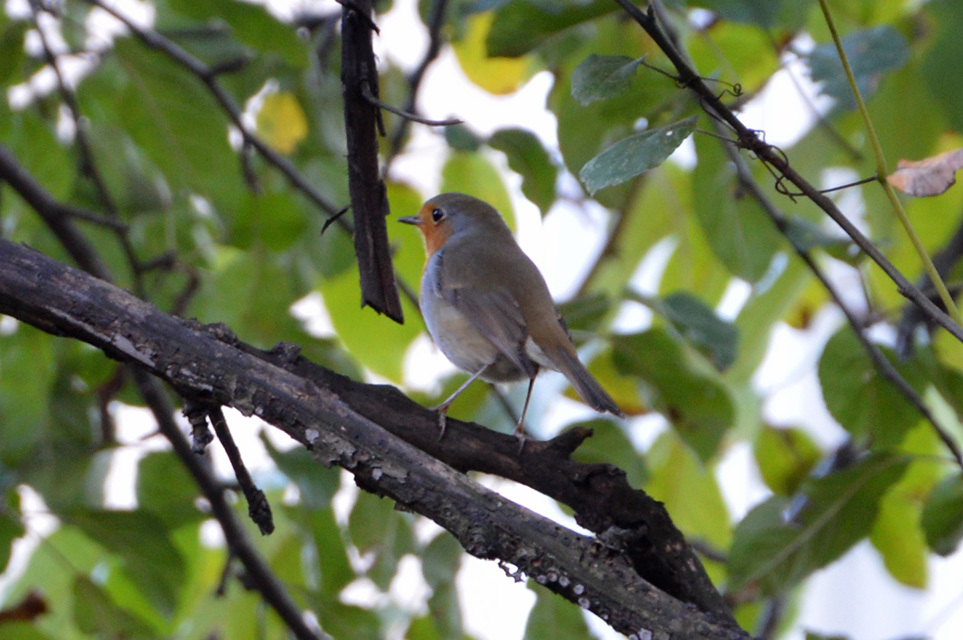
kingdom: Animalia
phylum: Chordata
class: Aves
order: Passeriformes
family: Muscicapidae
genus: Erithacus
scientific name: Erithacus rubecula
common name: European robin
